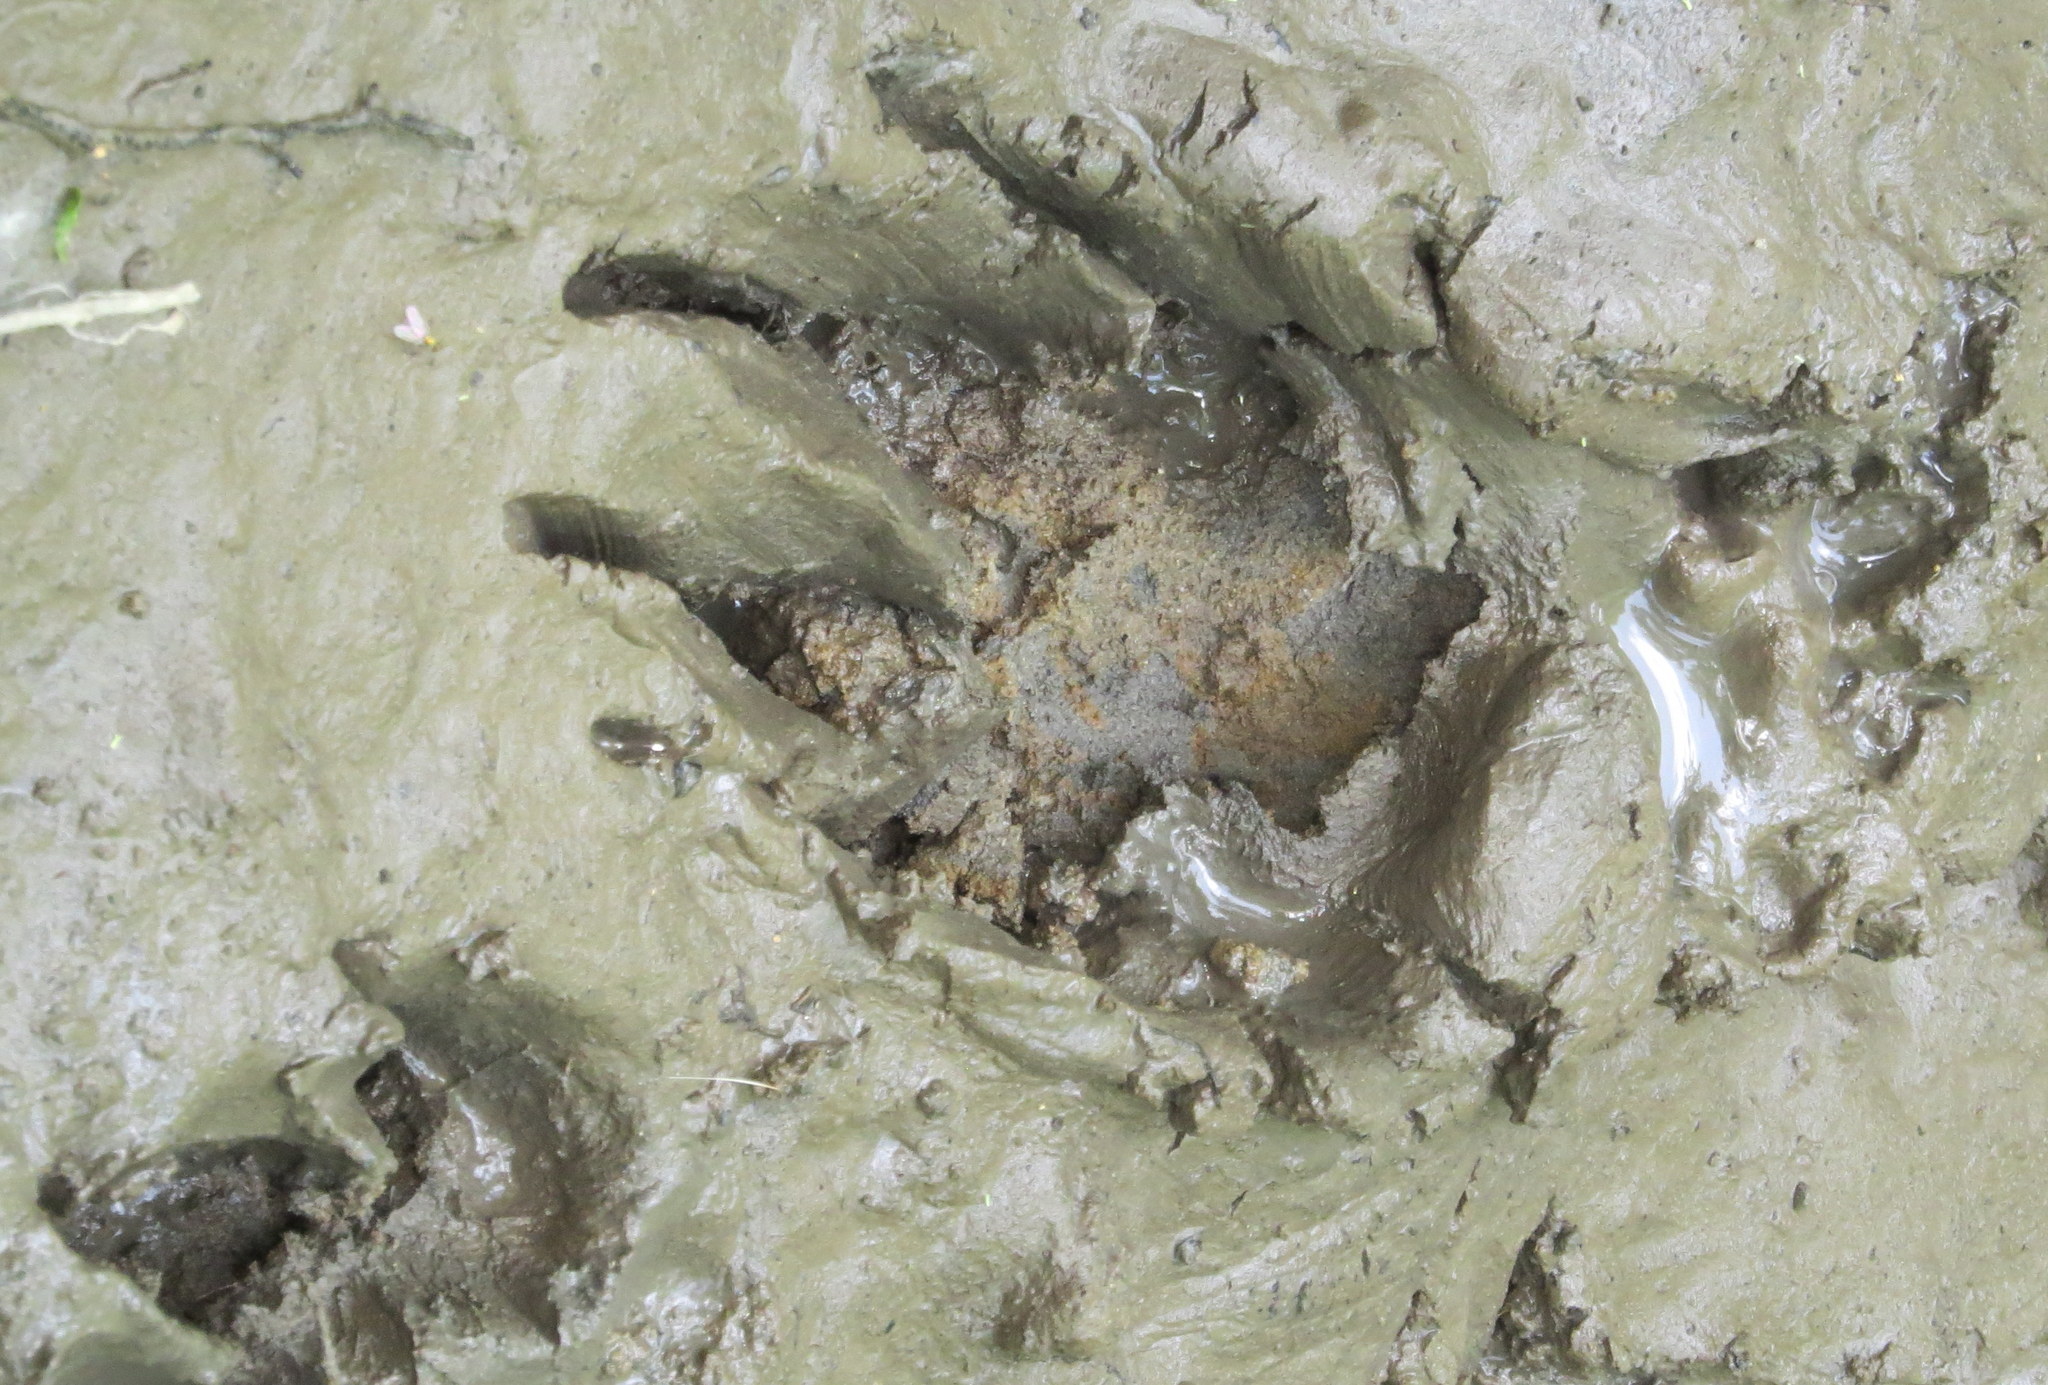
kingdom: Animalia
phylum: Chordata
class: Mammalia
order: Carnivora
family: Procyonidae
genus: Procyon
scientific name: Procyon lotor
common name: Raccoon
